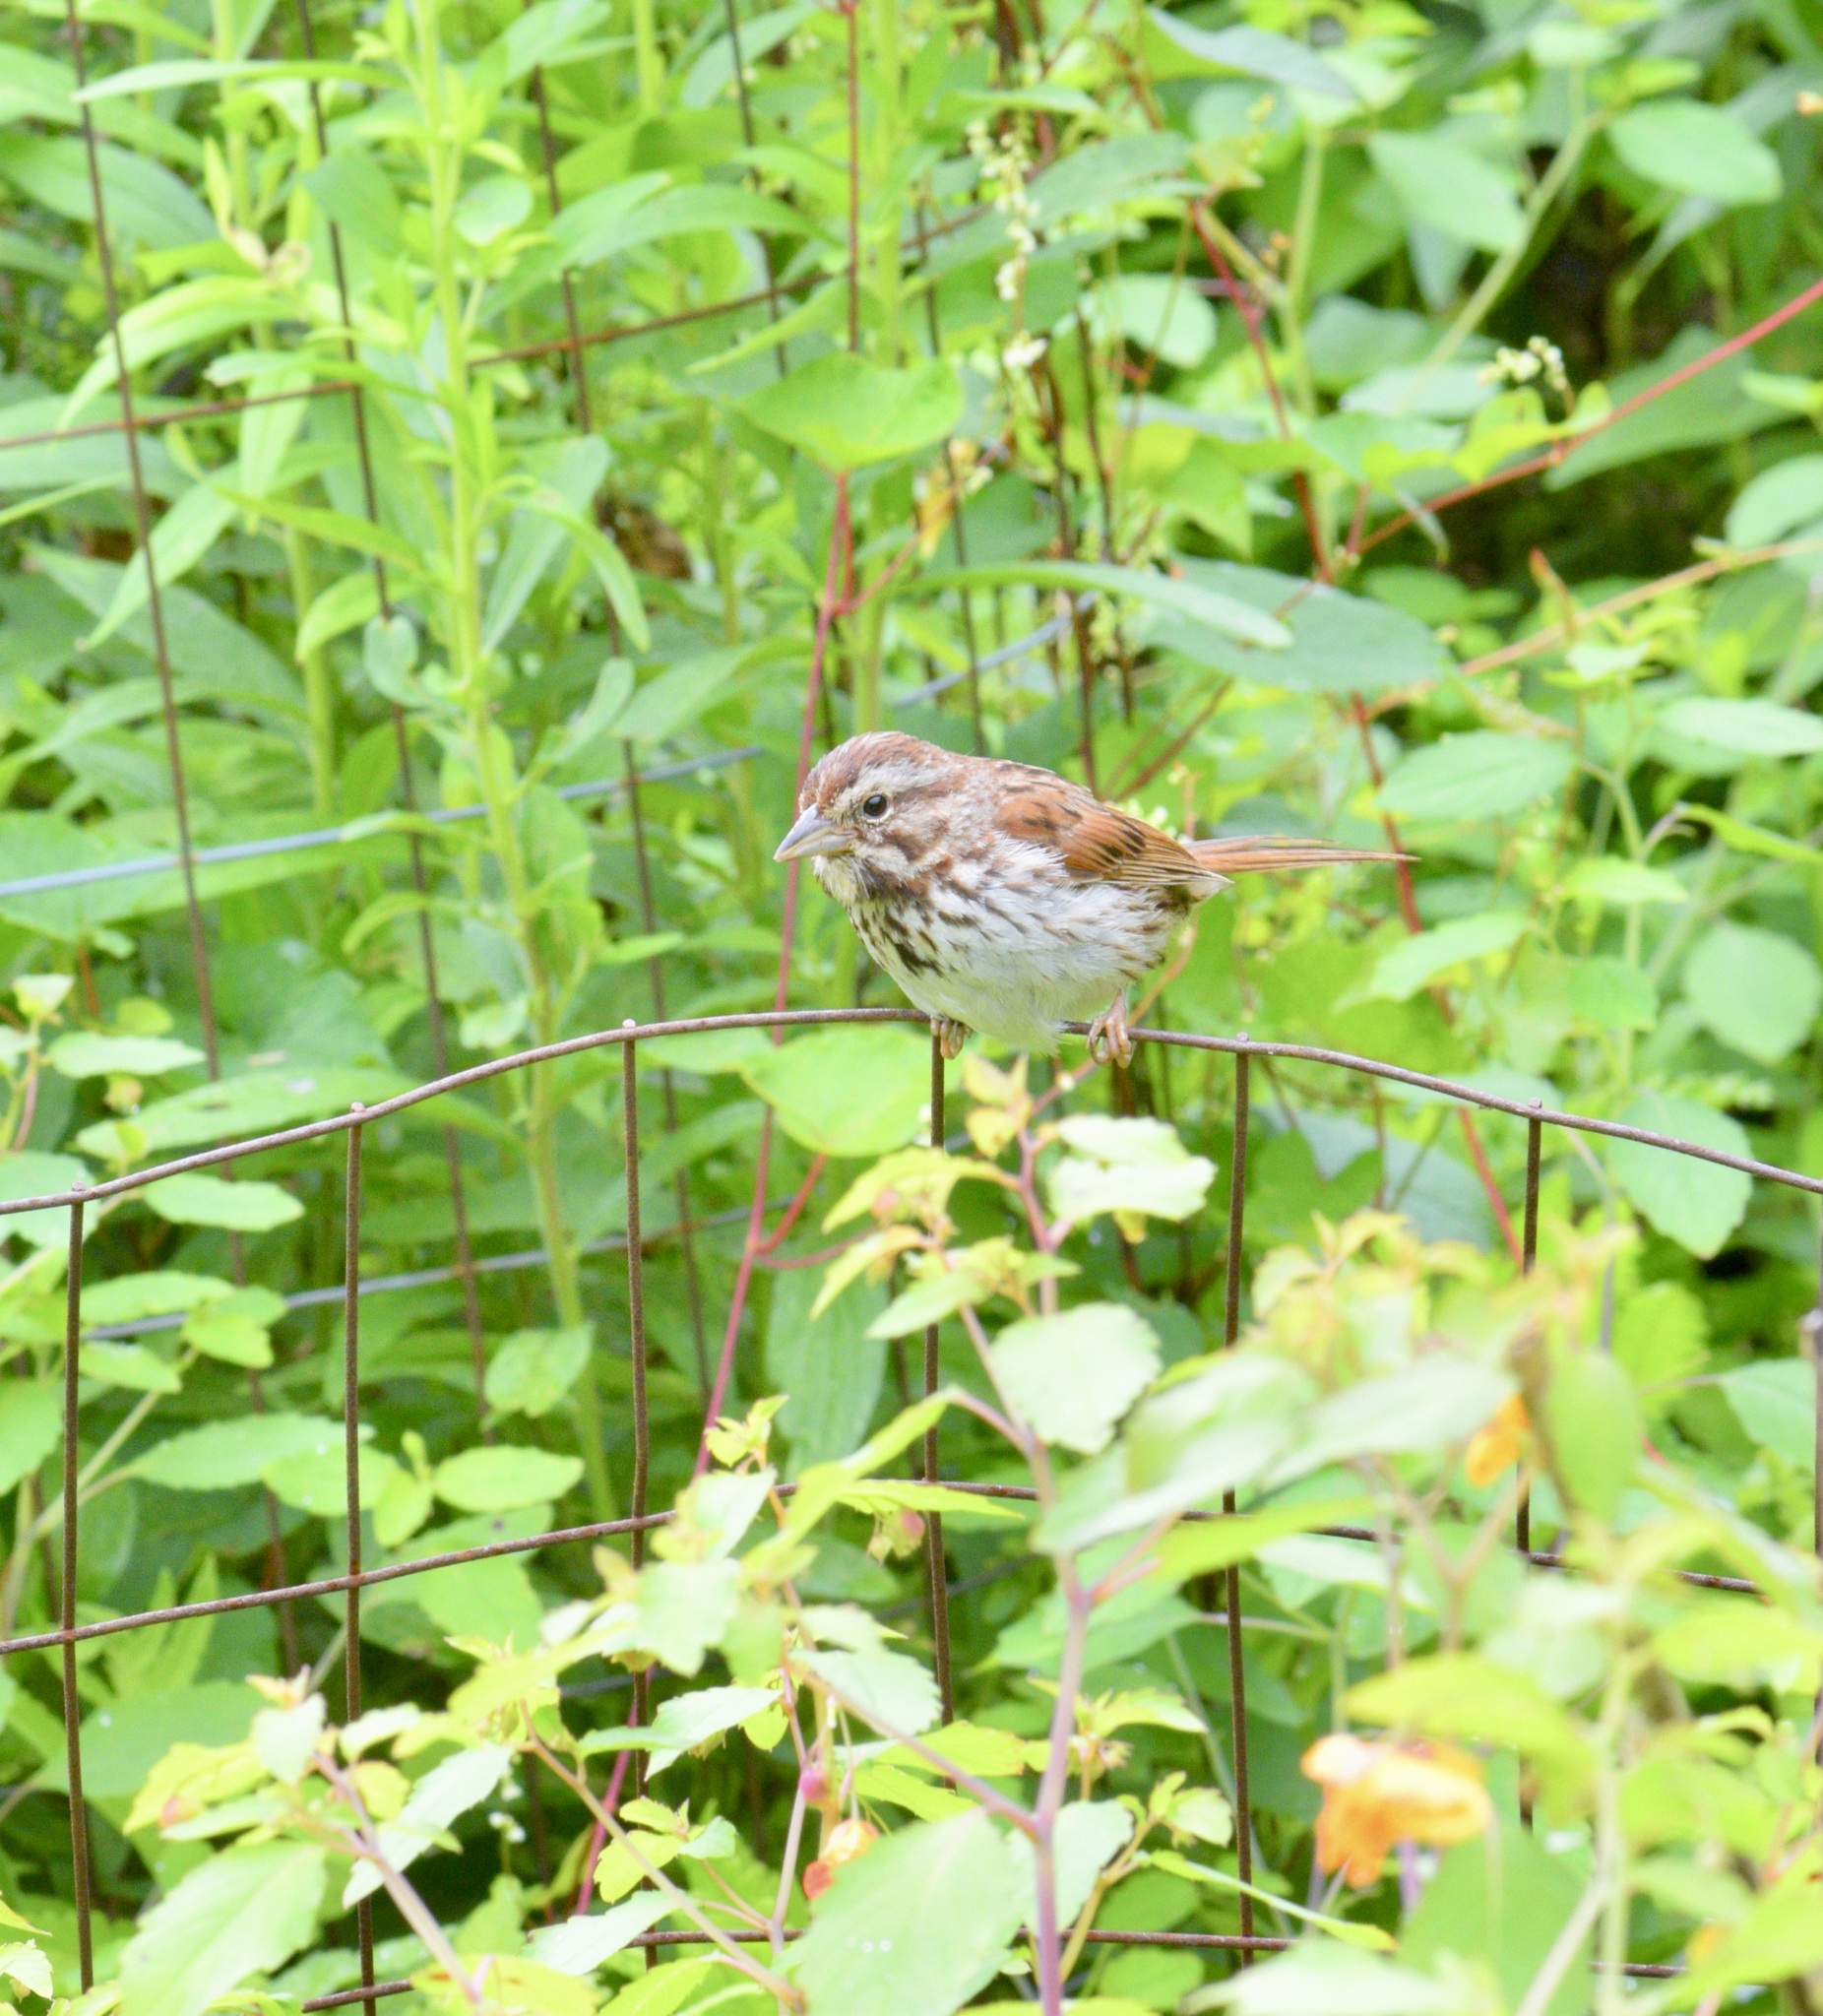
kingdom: Animalia
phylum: Chordata
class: Aves
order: Passeriformes
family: Passerellidae
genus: Melospiza
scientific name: Melospiza melodia
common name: Song sparrow
